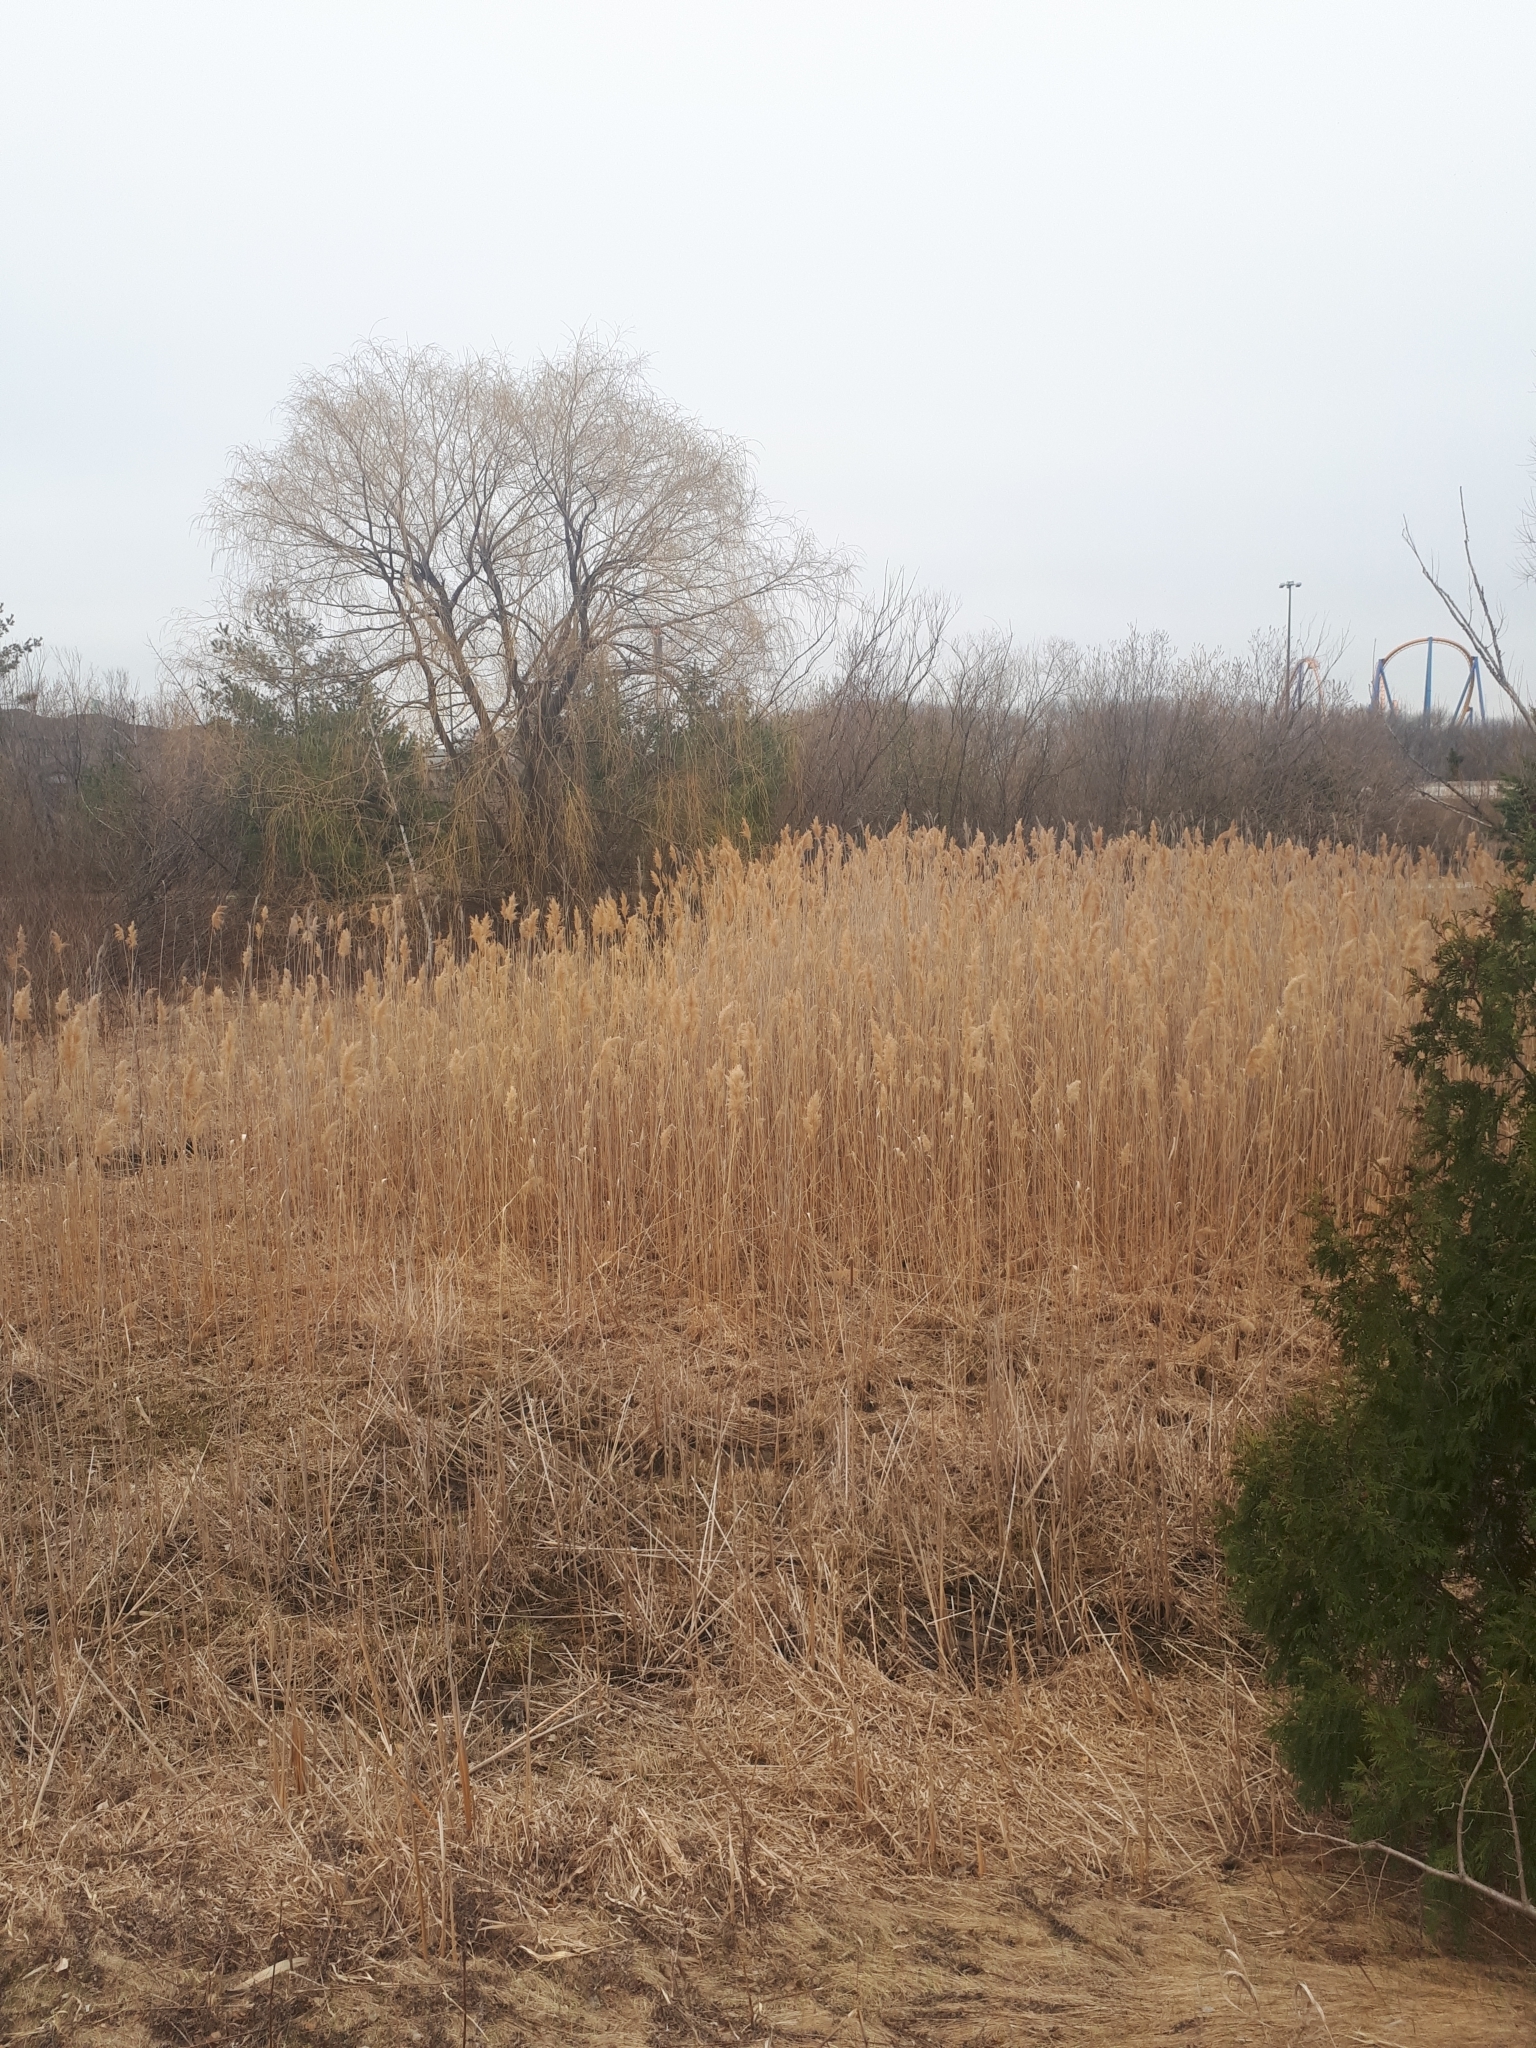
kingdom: Plantae
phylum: Tracheophyta
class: Liliopsida
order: Poales
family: Poaceae
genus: Phragmites
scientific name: Phragmites australis
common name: Common reed
